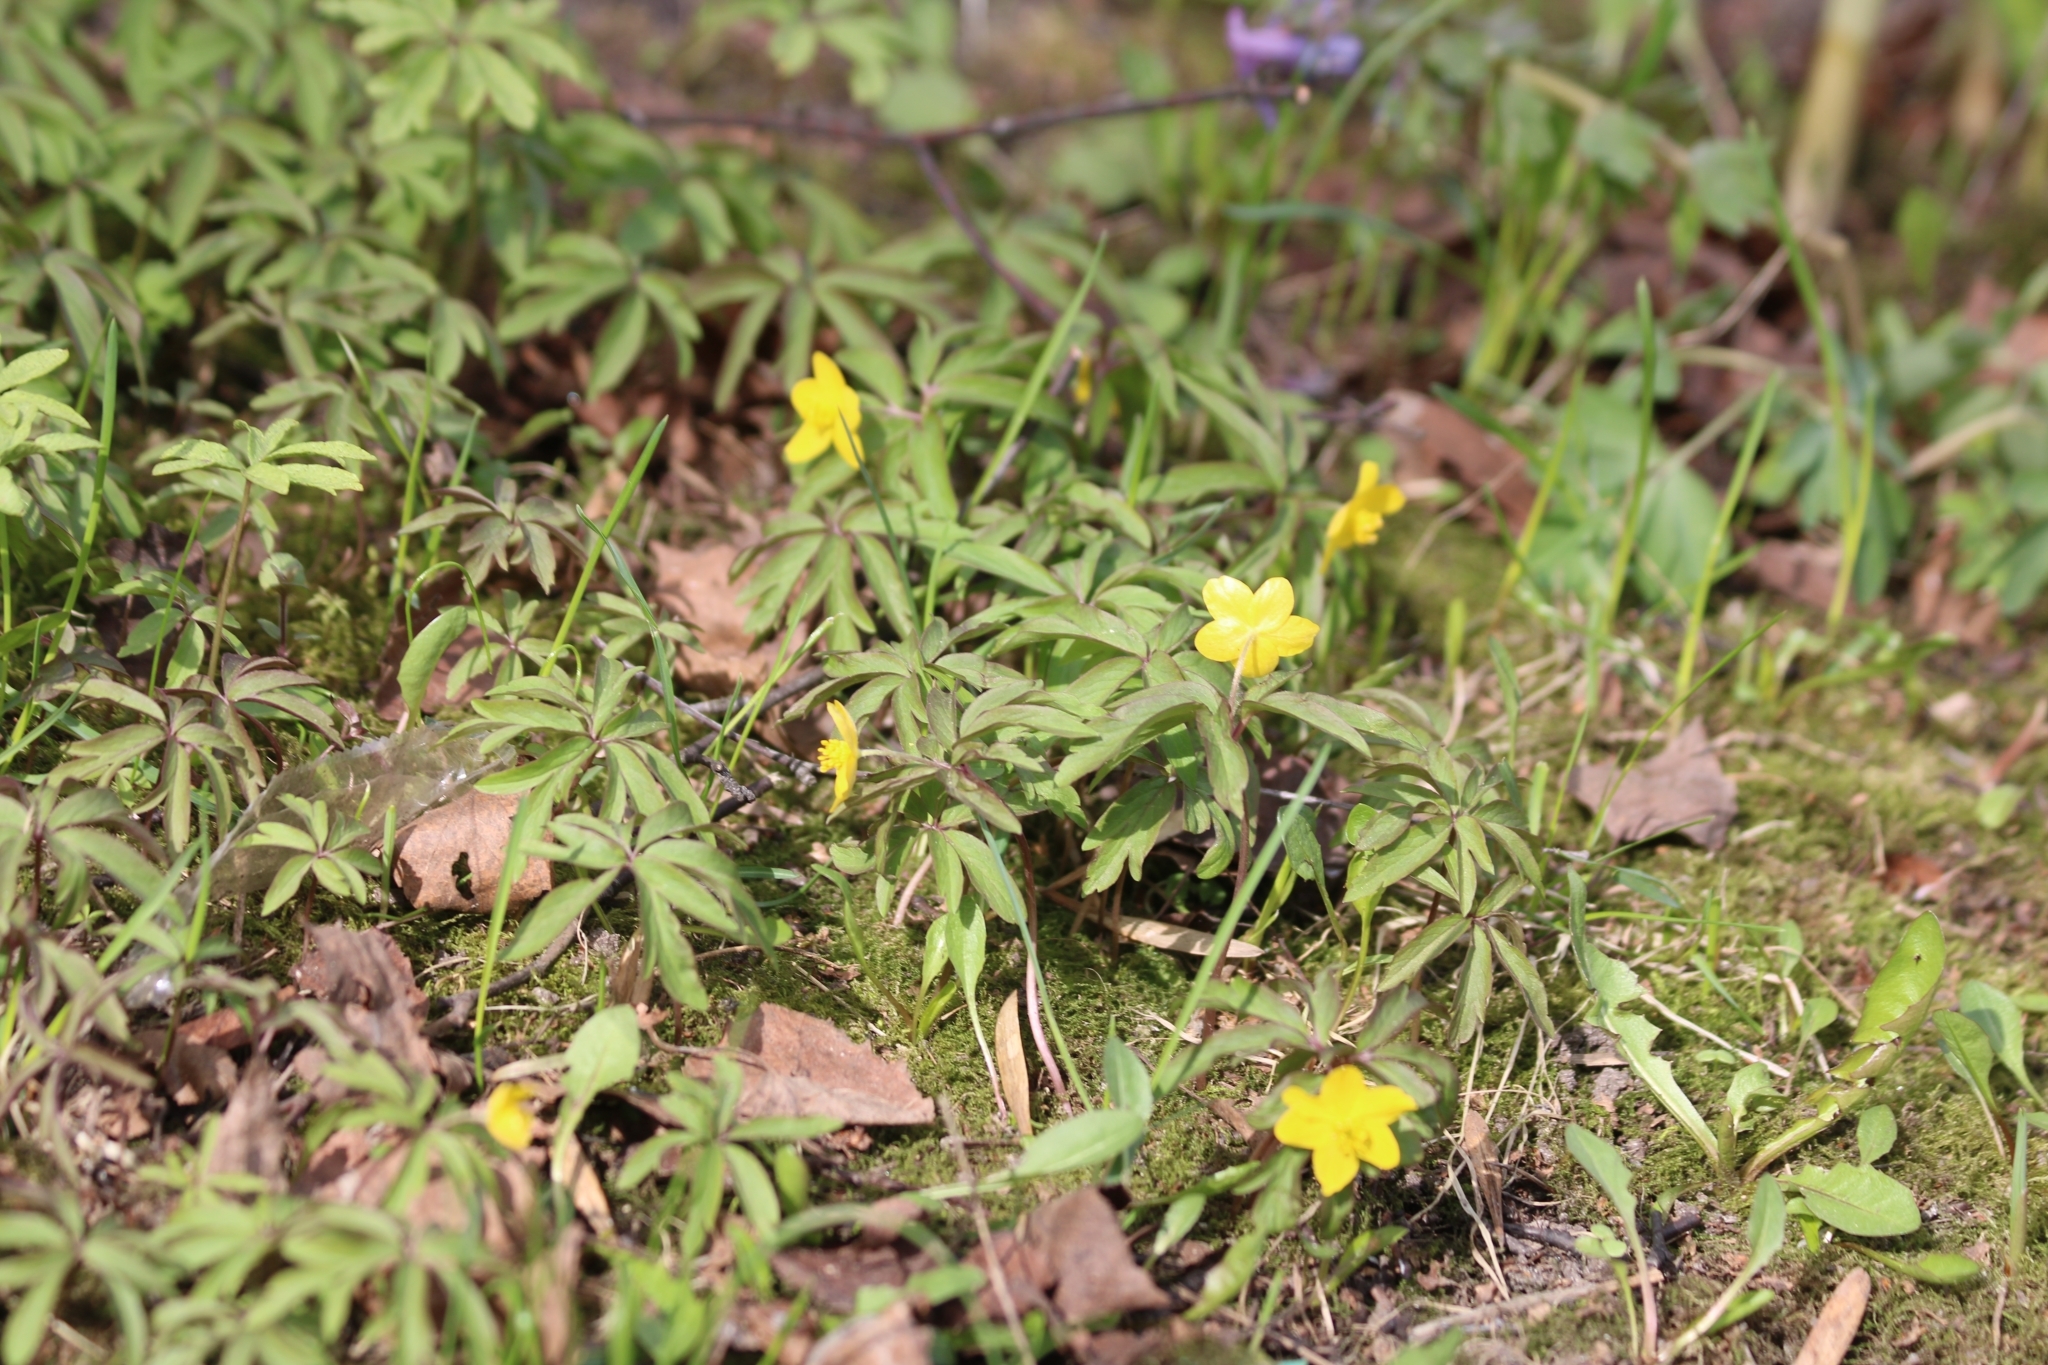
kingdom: Plantae
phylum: Tracheophyta
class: Magnoliopsida
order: Ranunculales
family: Ranunculaceae
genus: Anemone
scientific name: Anemone ranunculoides
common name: Yellow anemone
